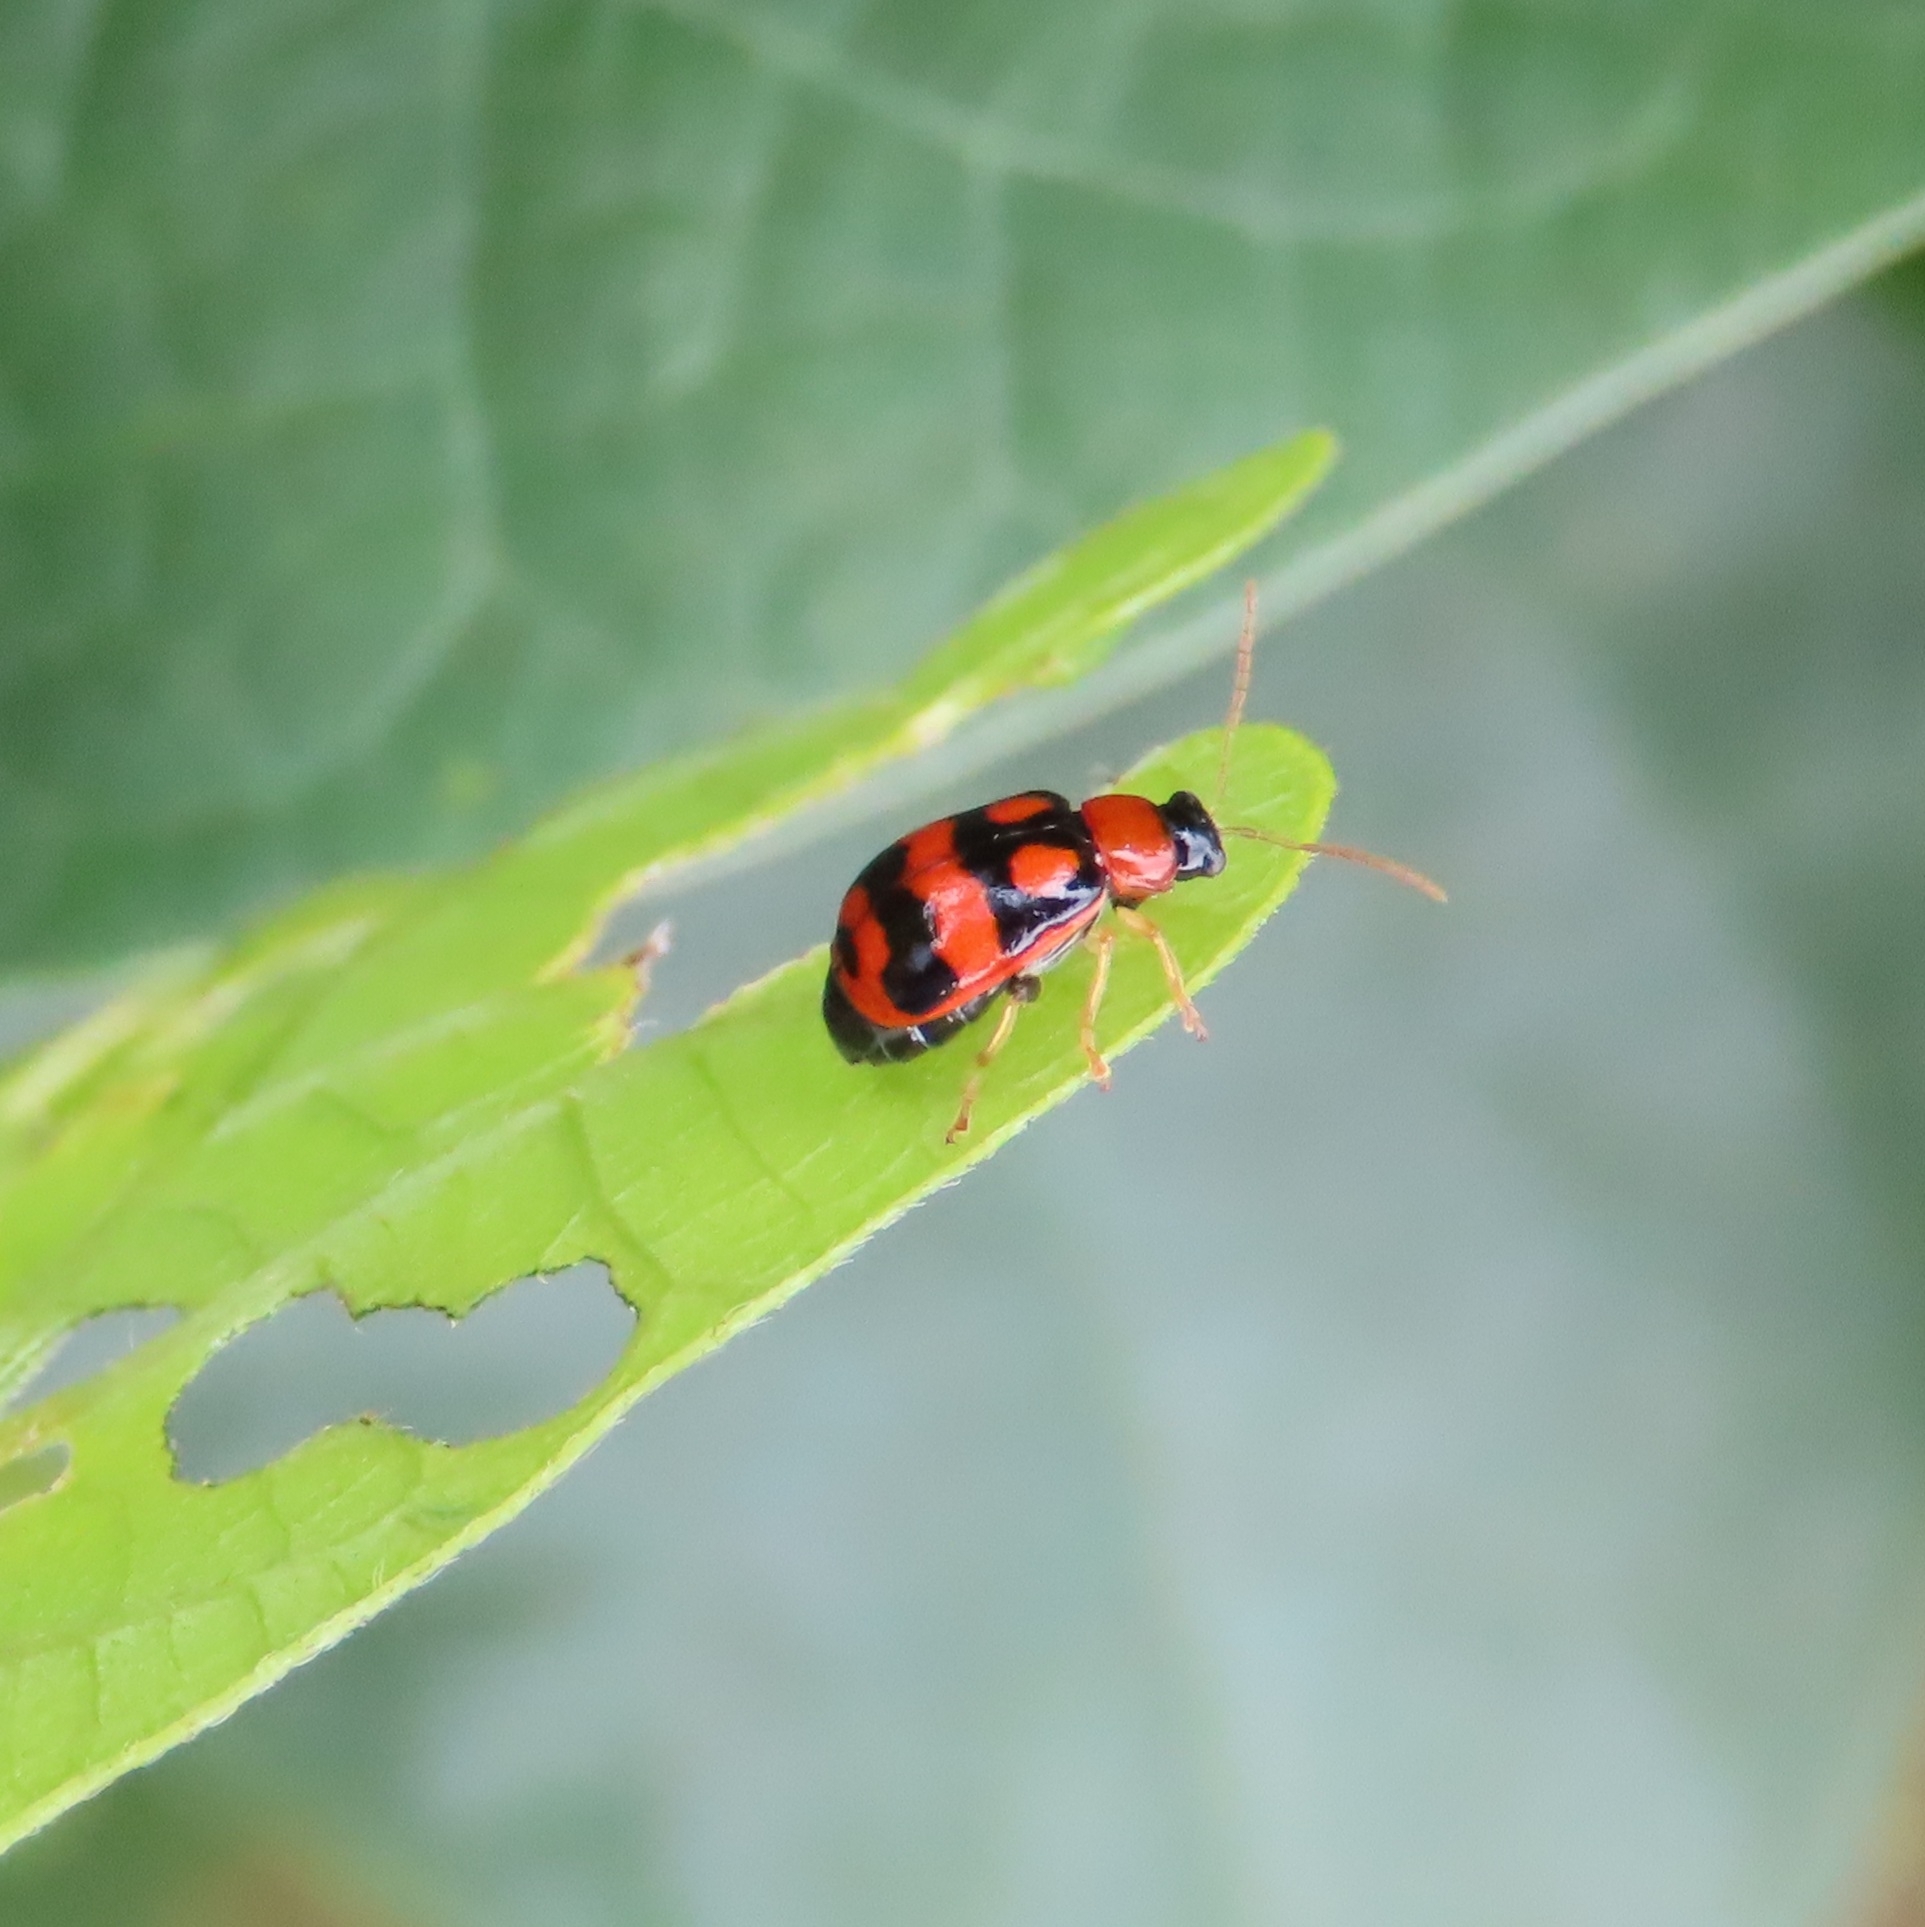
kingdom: Animalia
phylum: Arthropoda
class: Insecta
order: Coleoptera
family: Chrysomelidae
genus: Cerotoma
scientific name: Cerotoma ruficornis
